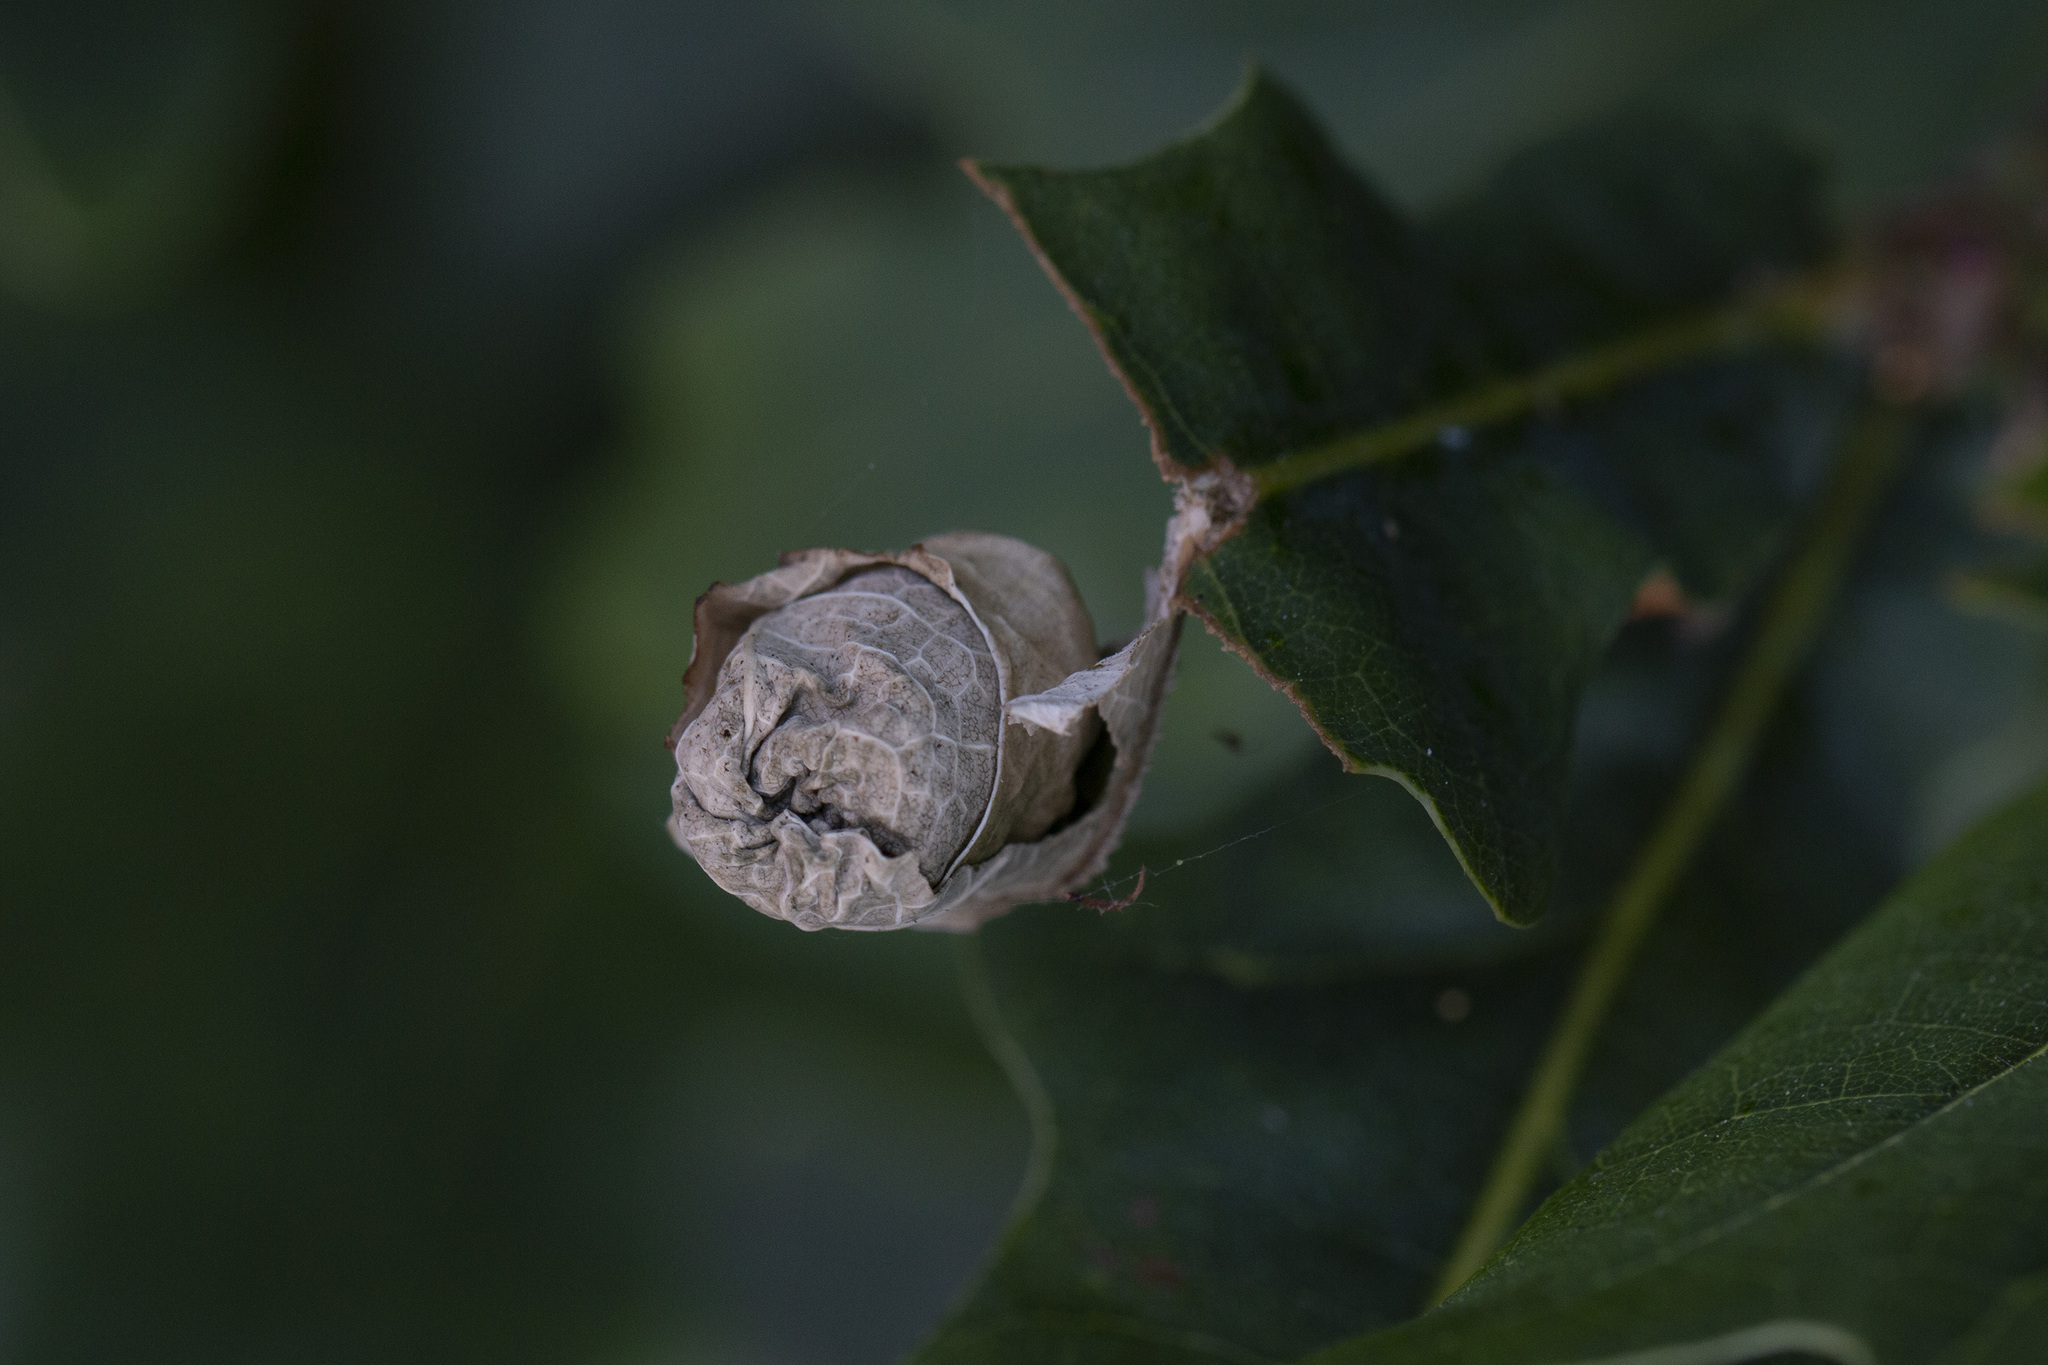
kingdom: Animalia
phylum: Arthropoda
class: Insecta
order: Coleoptera
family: Attelabidae
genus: Attelabus
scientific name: Attelabus nitens
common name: Oak leaf-roller
